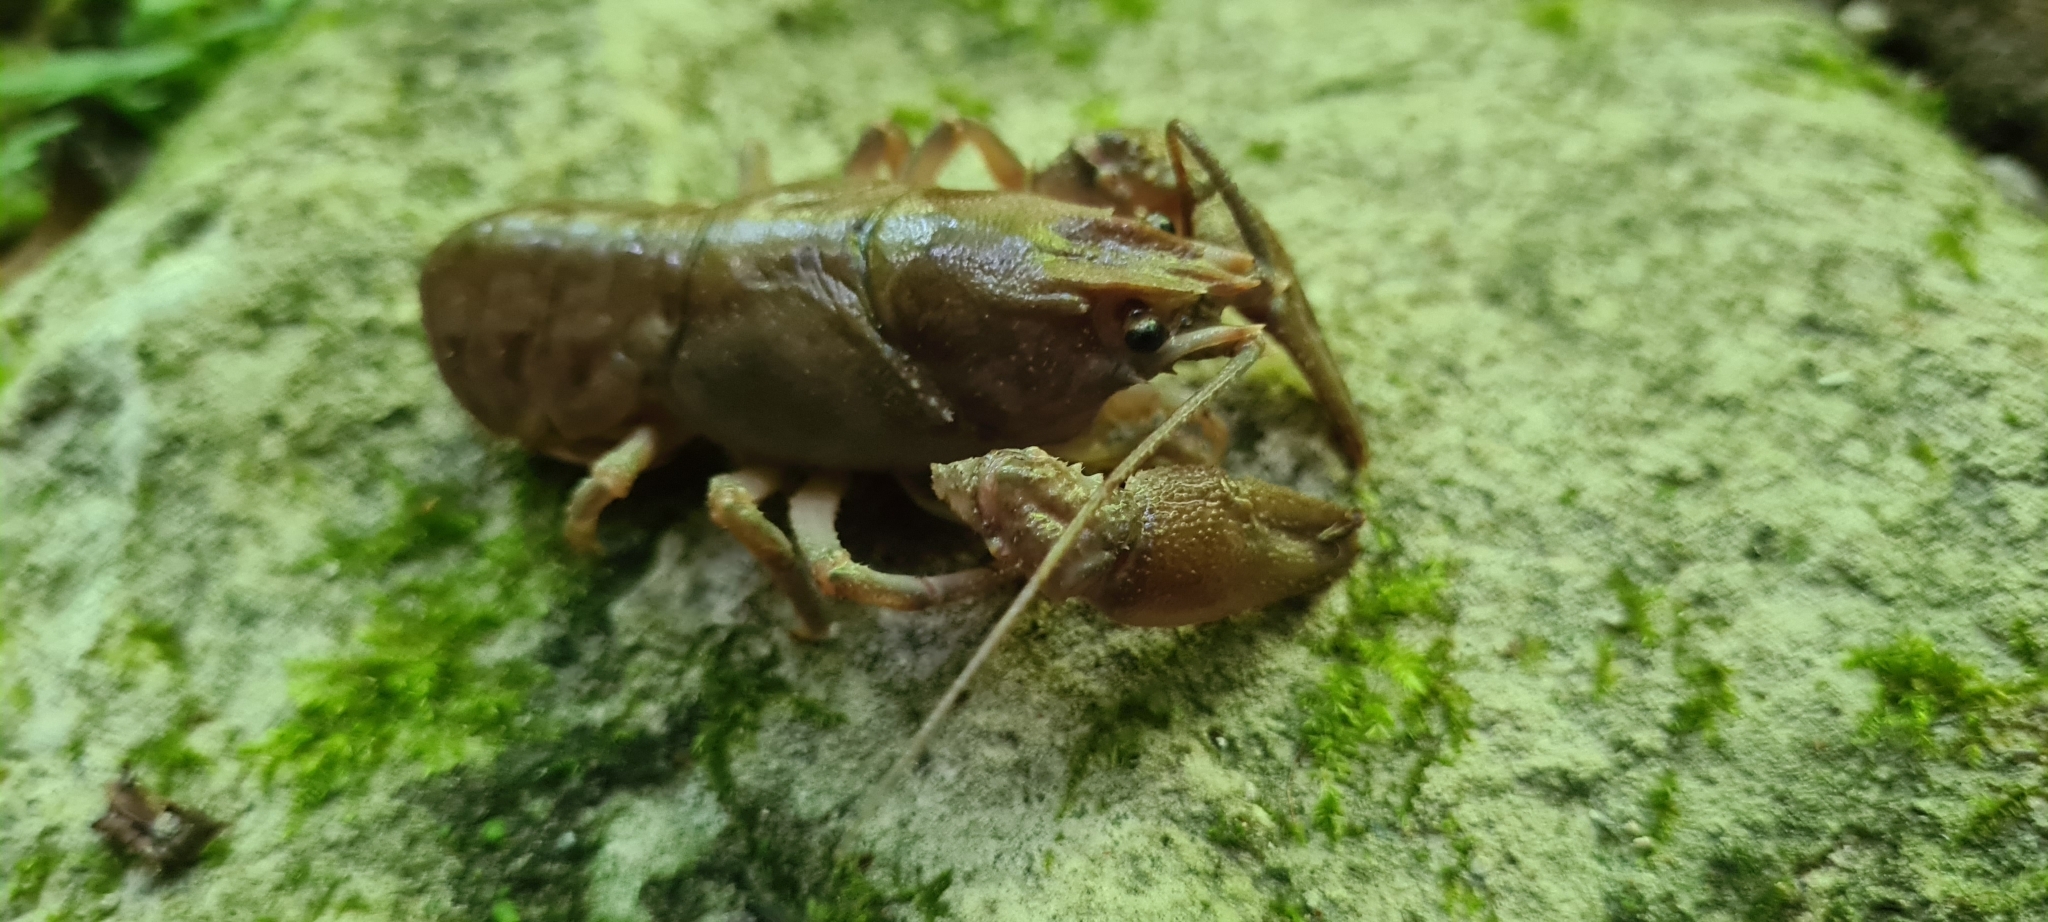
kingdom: Animalia
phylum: Arthropoda
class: Malacostraca
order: Decapoda
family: Astacidae
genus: Austropotamobius
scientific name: Austropotamobius pallipes
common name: White-clawed crayfish
